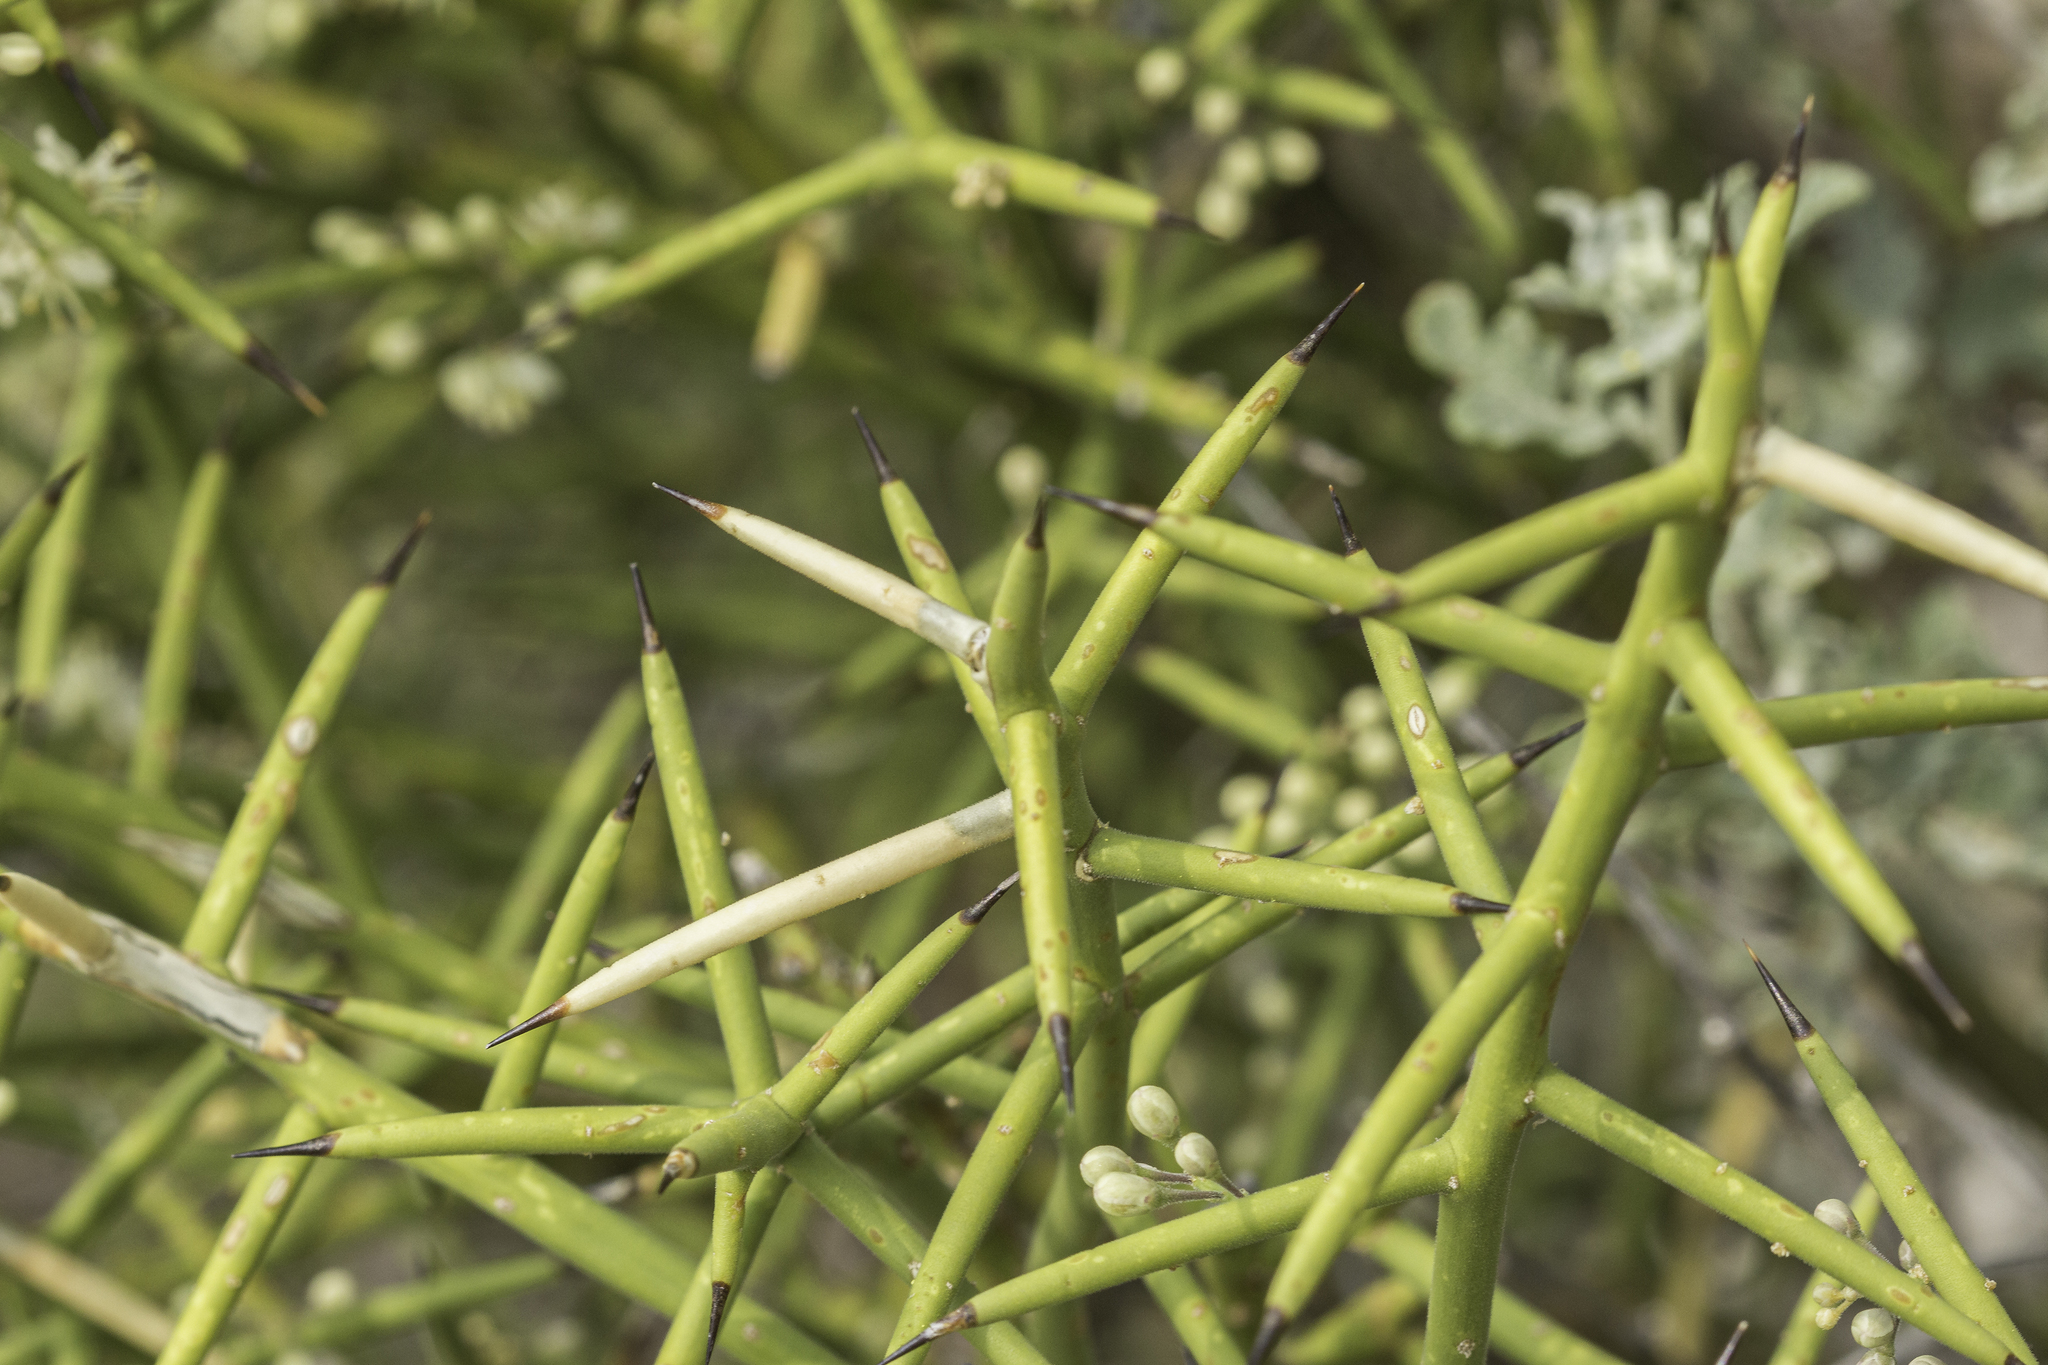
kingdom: Plantae
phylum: Tracheophyta
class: Magnoliopsida
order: Brassicales
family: Koeberliniaceae
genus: Koeberlinia
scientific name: Koeberlinia spinosa
